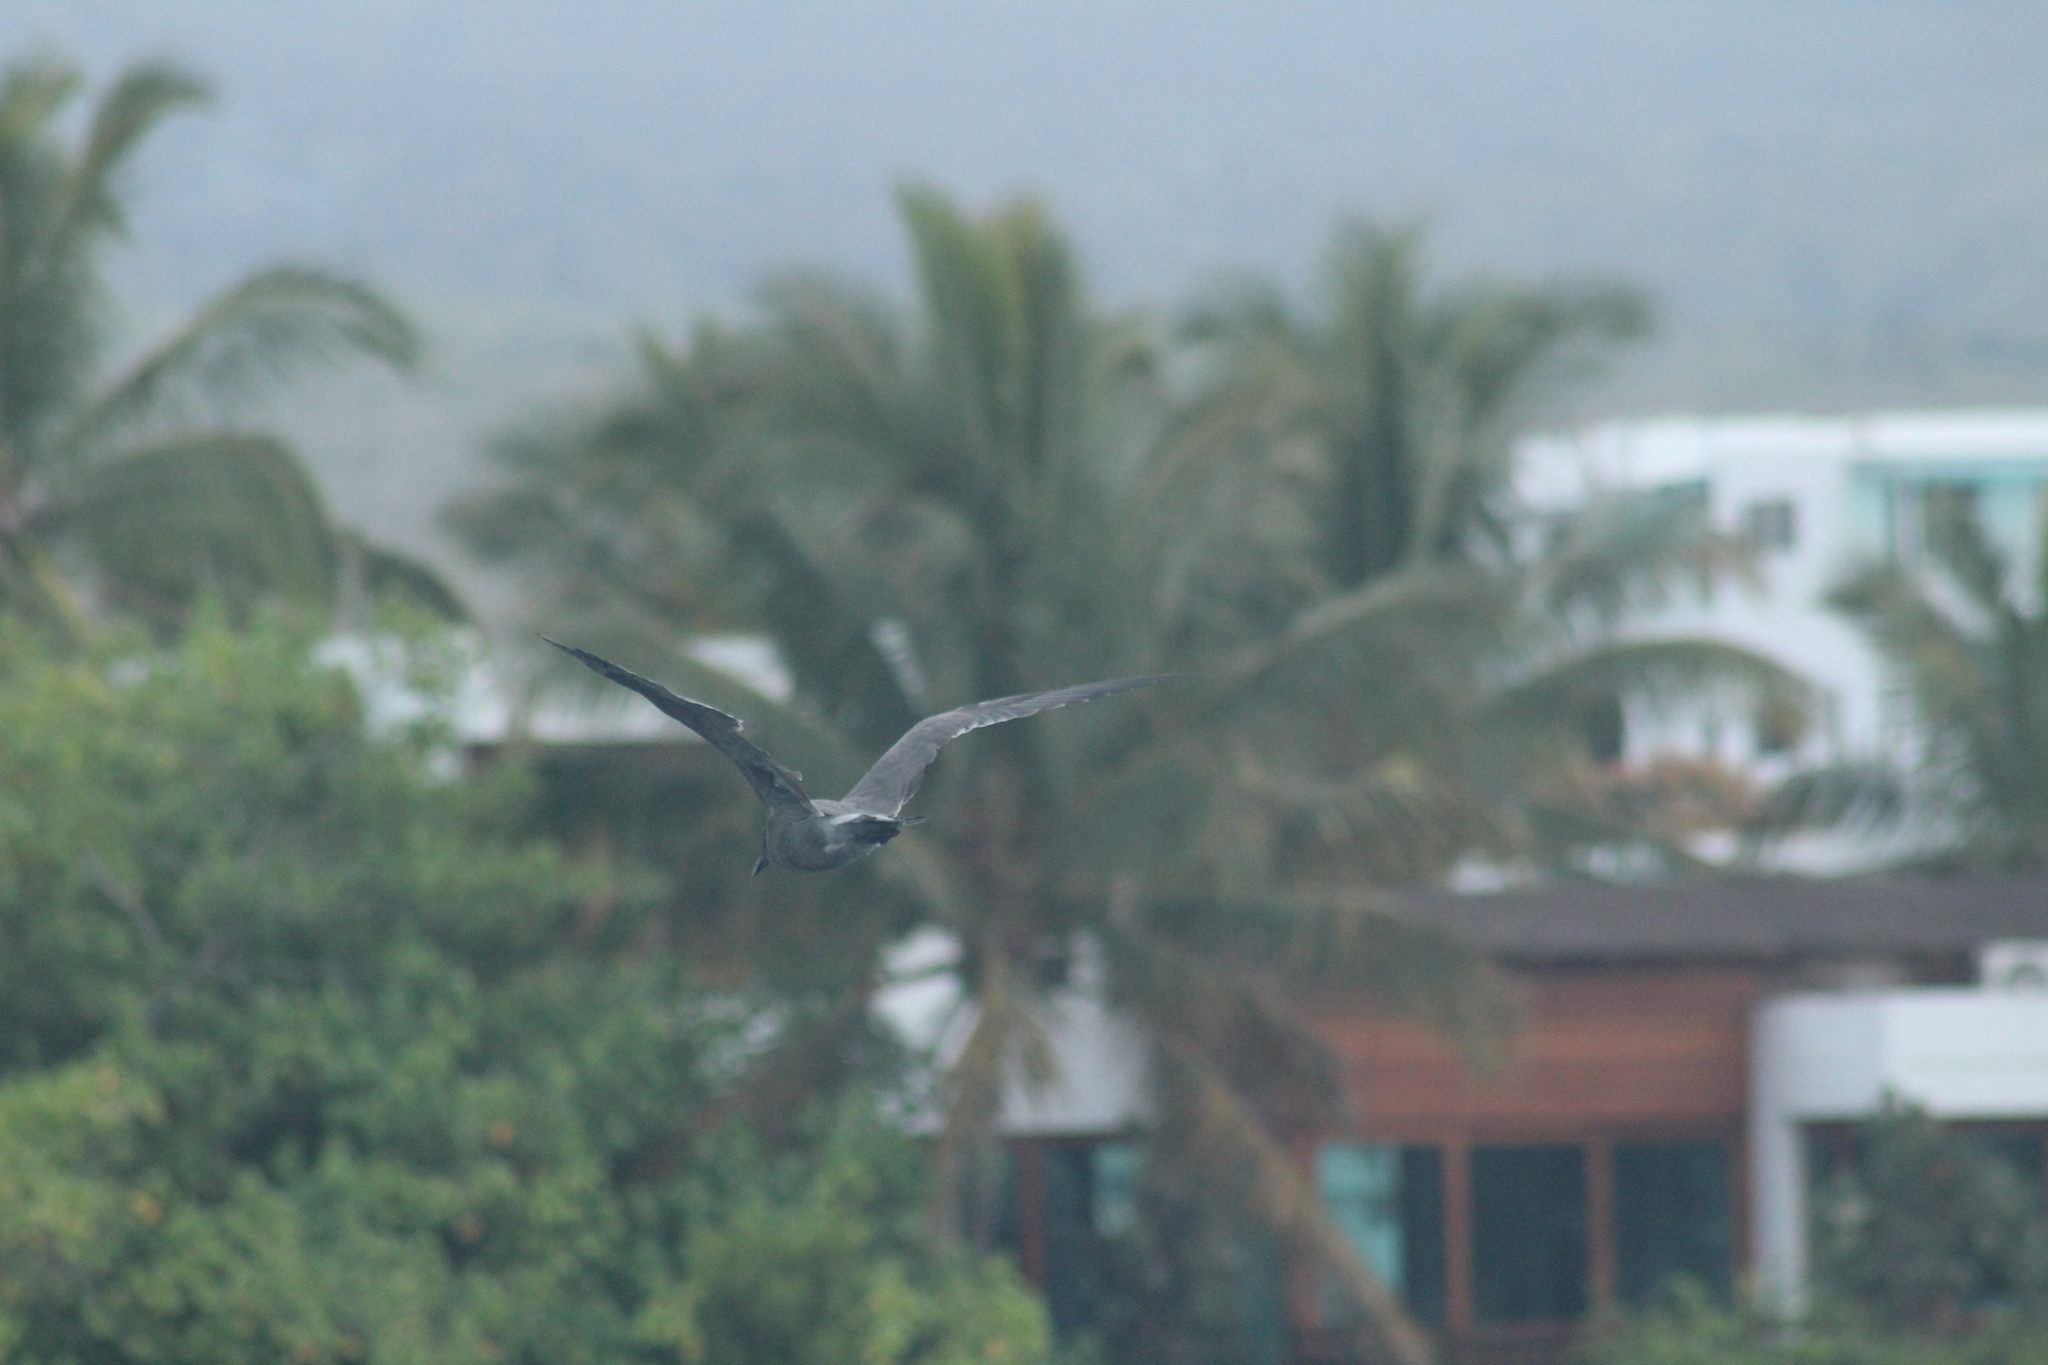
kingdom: Animalia
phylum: Chordata
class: Aves
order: Charadriiformes
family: Laridae
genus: Leucophaeus
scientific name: Leucophaeus fuliginosus
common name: Lava gull
